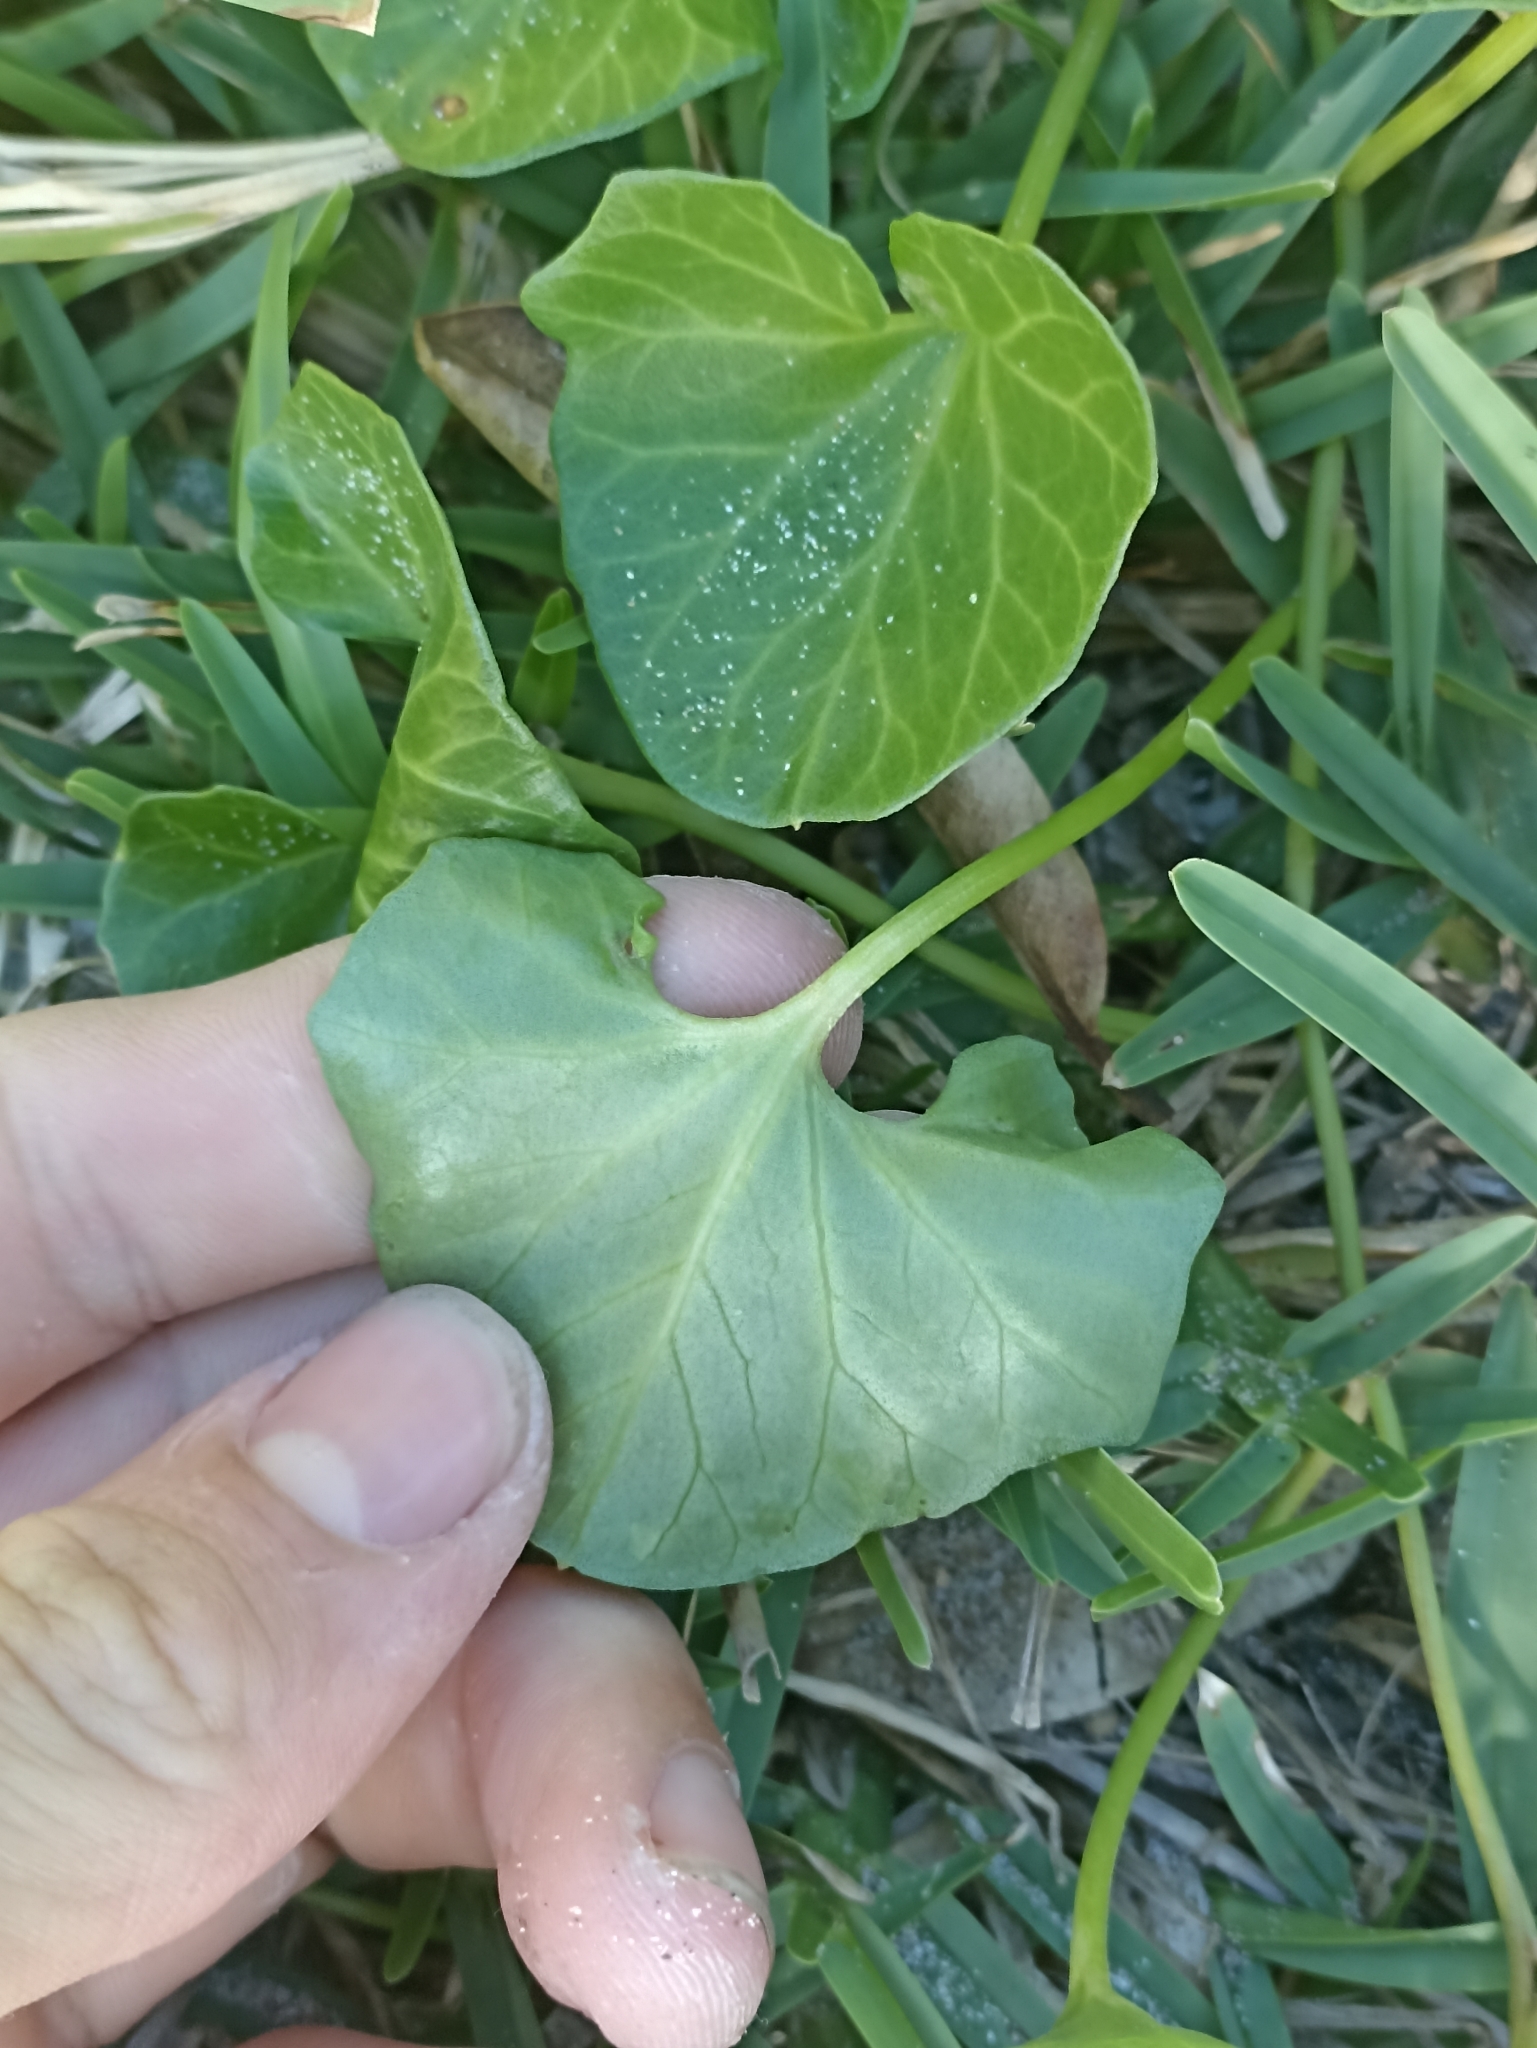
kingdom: Plantae
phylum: Tracheophyta
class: Magnoliopsida
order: Solanales
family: Convolvulaceae
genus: Calystegia
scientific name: Calystegia soldanella
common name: Sea bindweed
